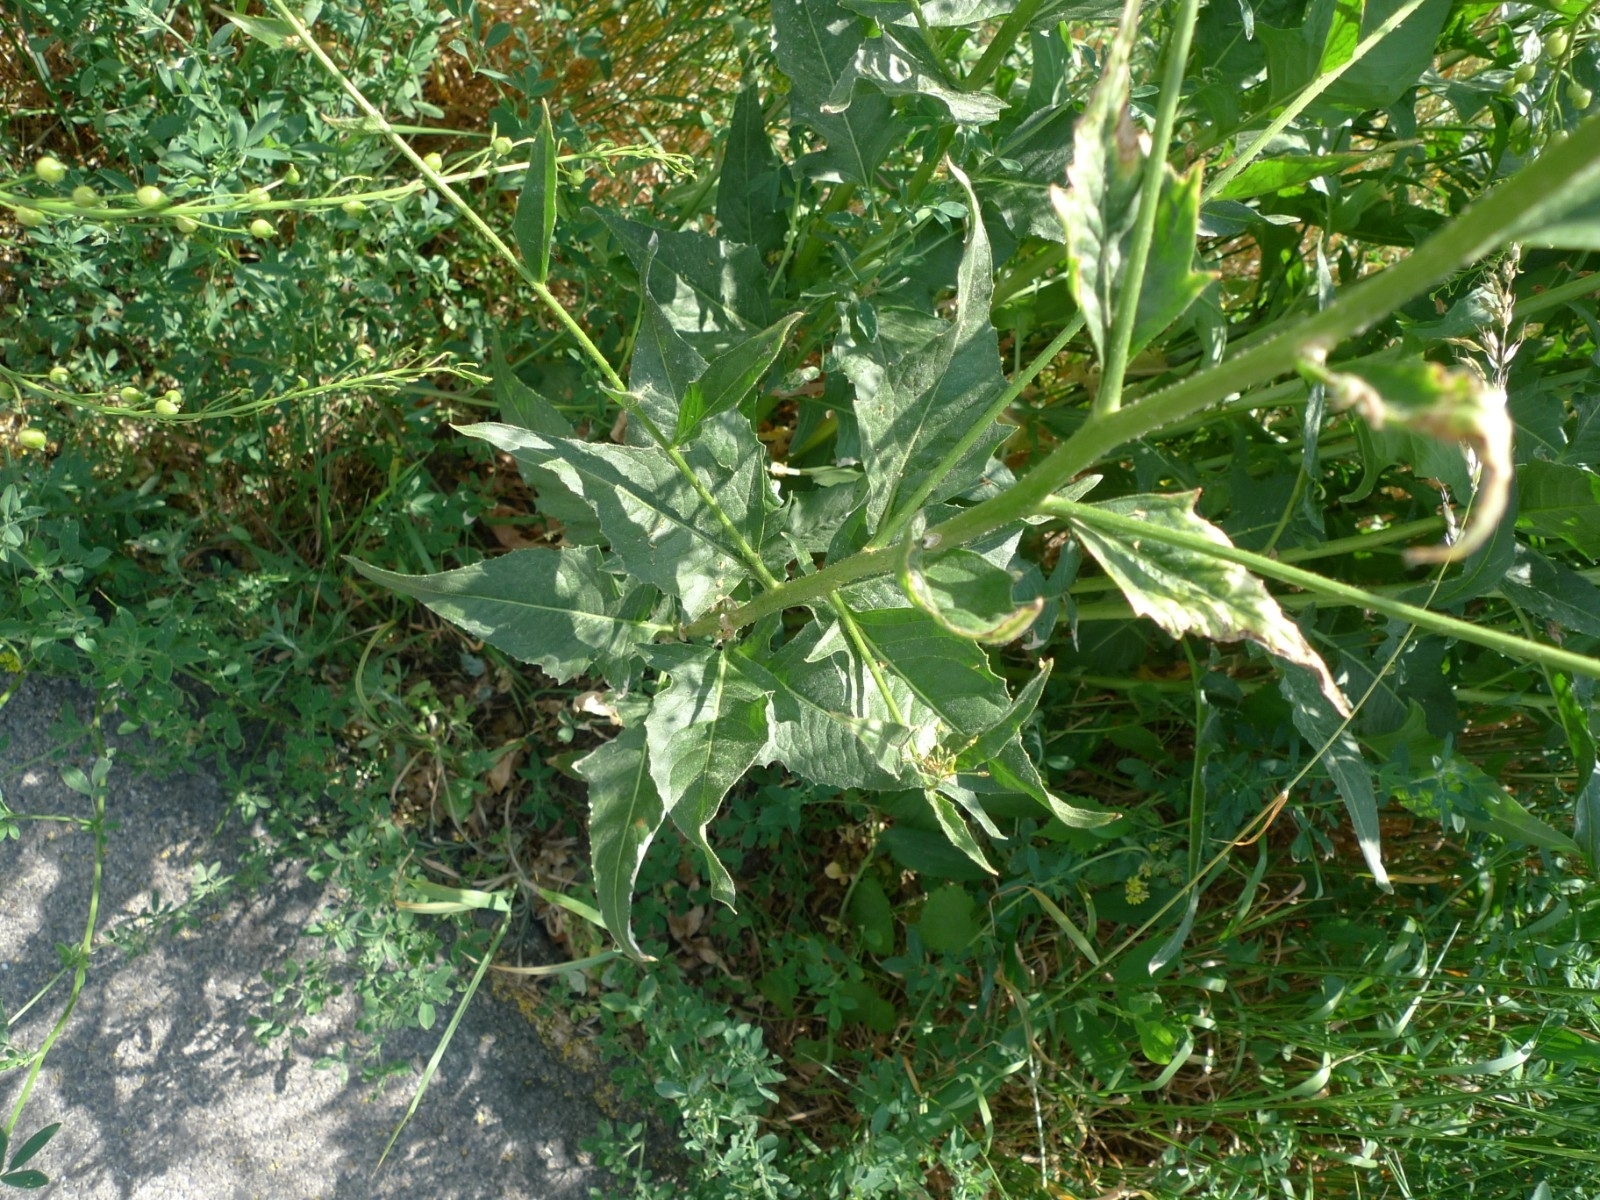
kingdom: Plantae
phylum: Tracheophyta
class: Magnoliopsida
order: Brassicales
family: Brassicaceae
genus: Bunias
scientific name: Bunias orientalis
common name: Warty-cabbage
